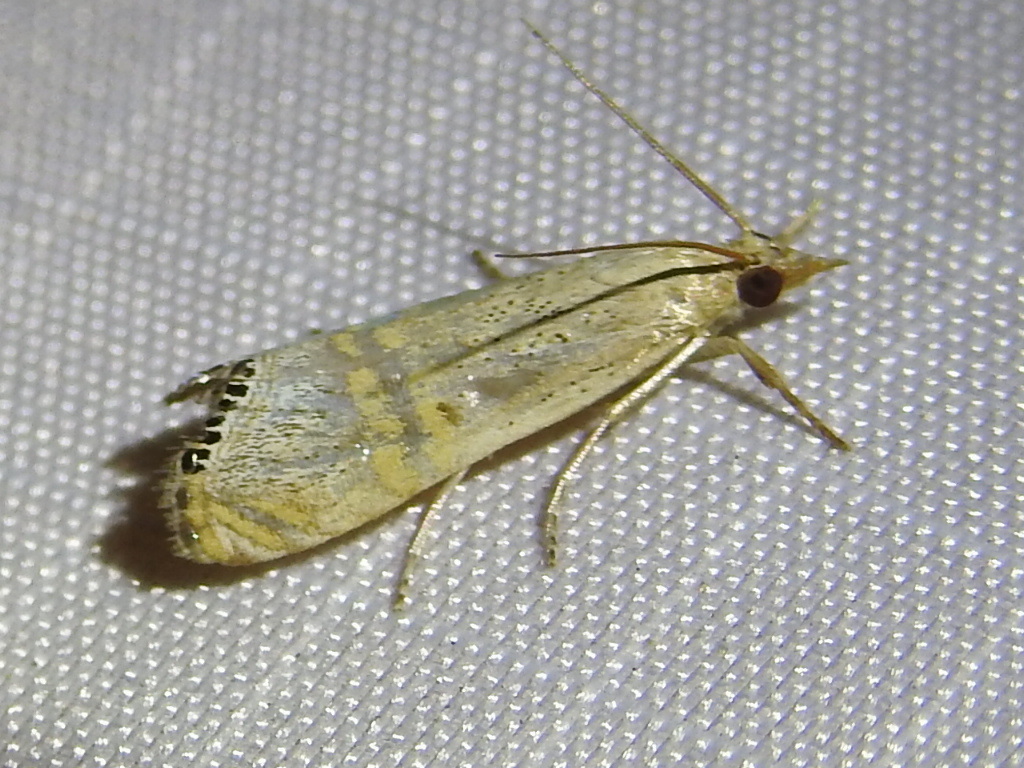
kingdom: Animalia
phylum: Arthropoda
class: Insecta
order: Lepidoptera
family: Crambidae
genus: Euchromius
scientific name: Euchromius ocellea
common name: Necklace veneer moth
